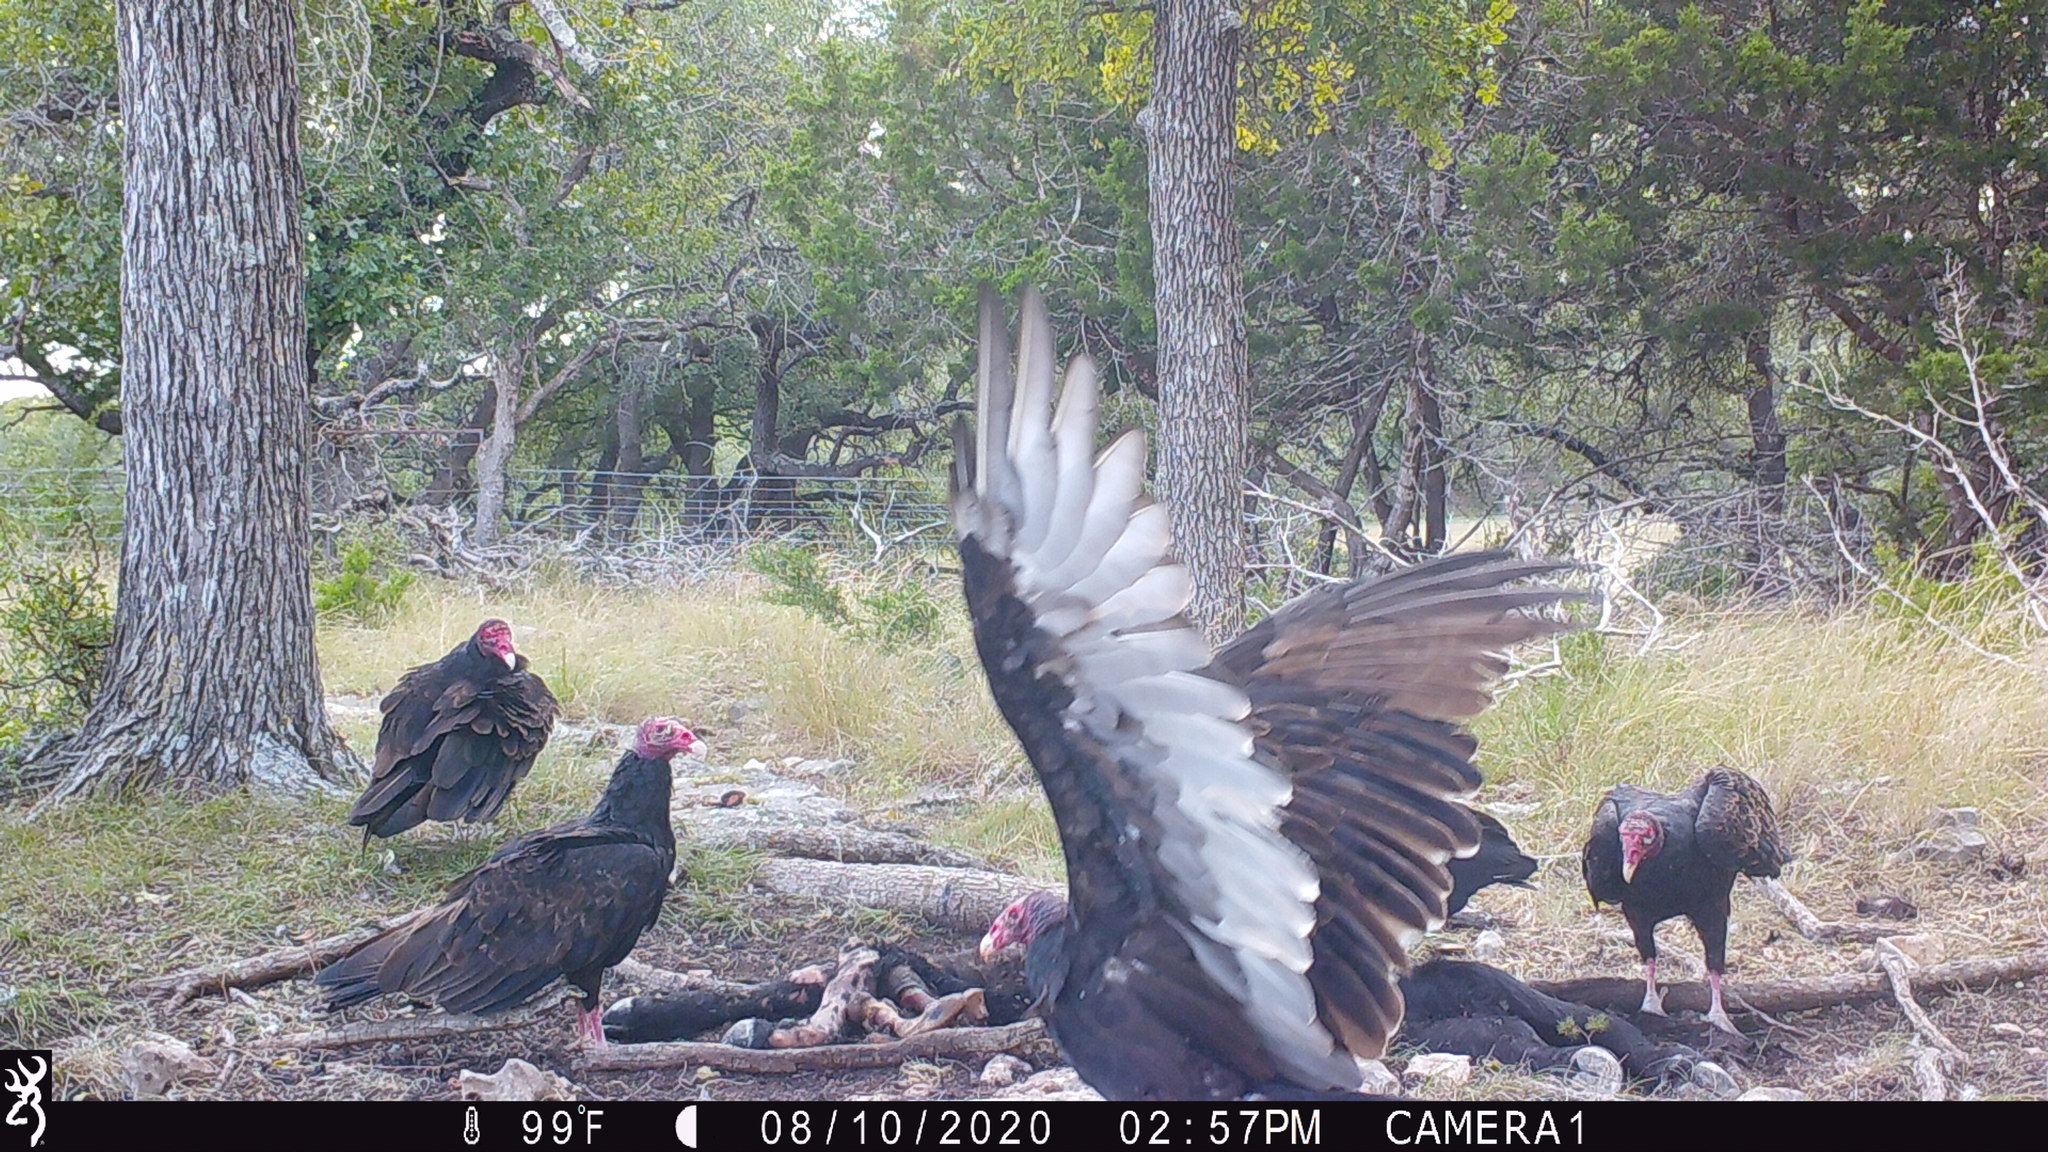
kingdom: Animalia
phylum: Chordata
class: Aves
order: Accipitriformes
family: Cathartidae
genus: Cathartes
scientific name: Cathartes aura
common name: Turkey vulture
